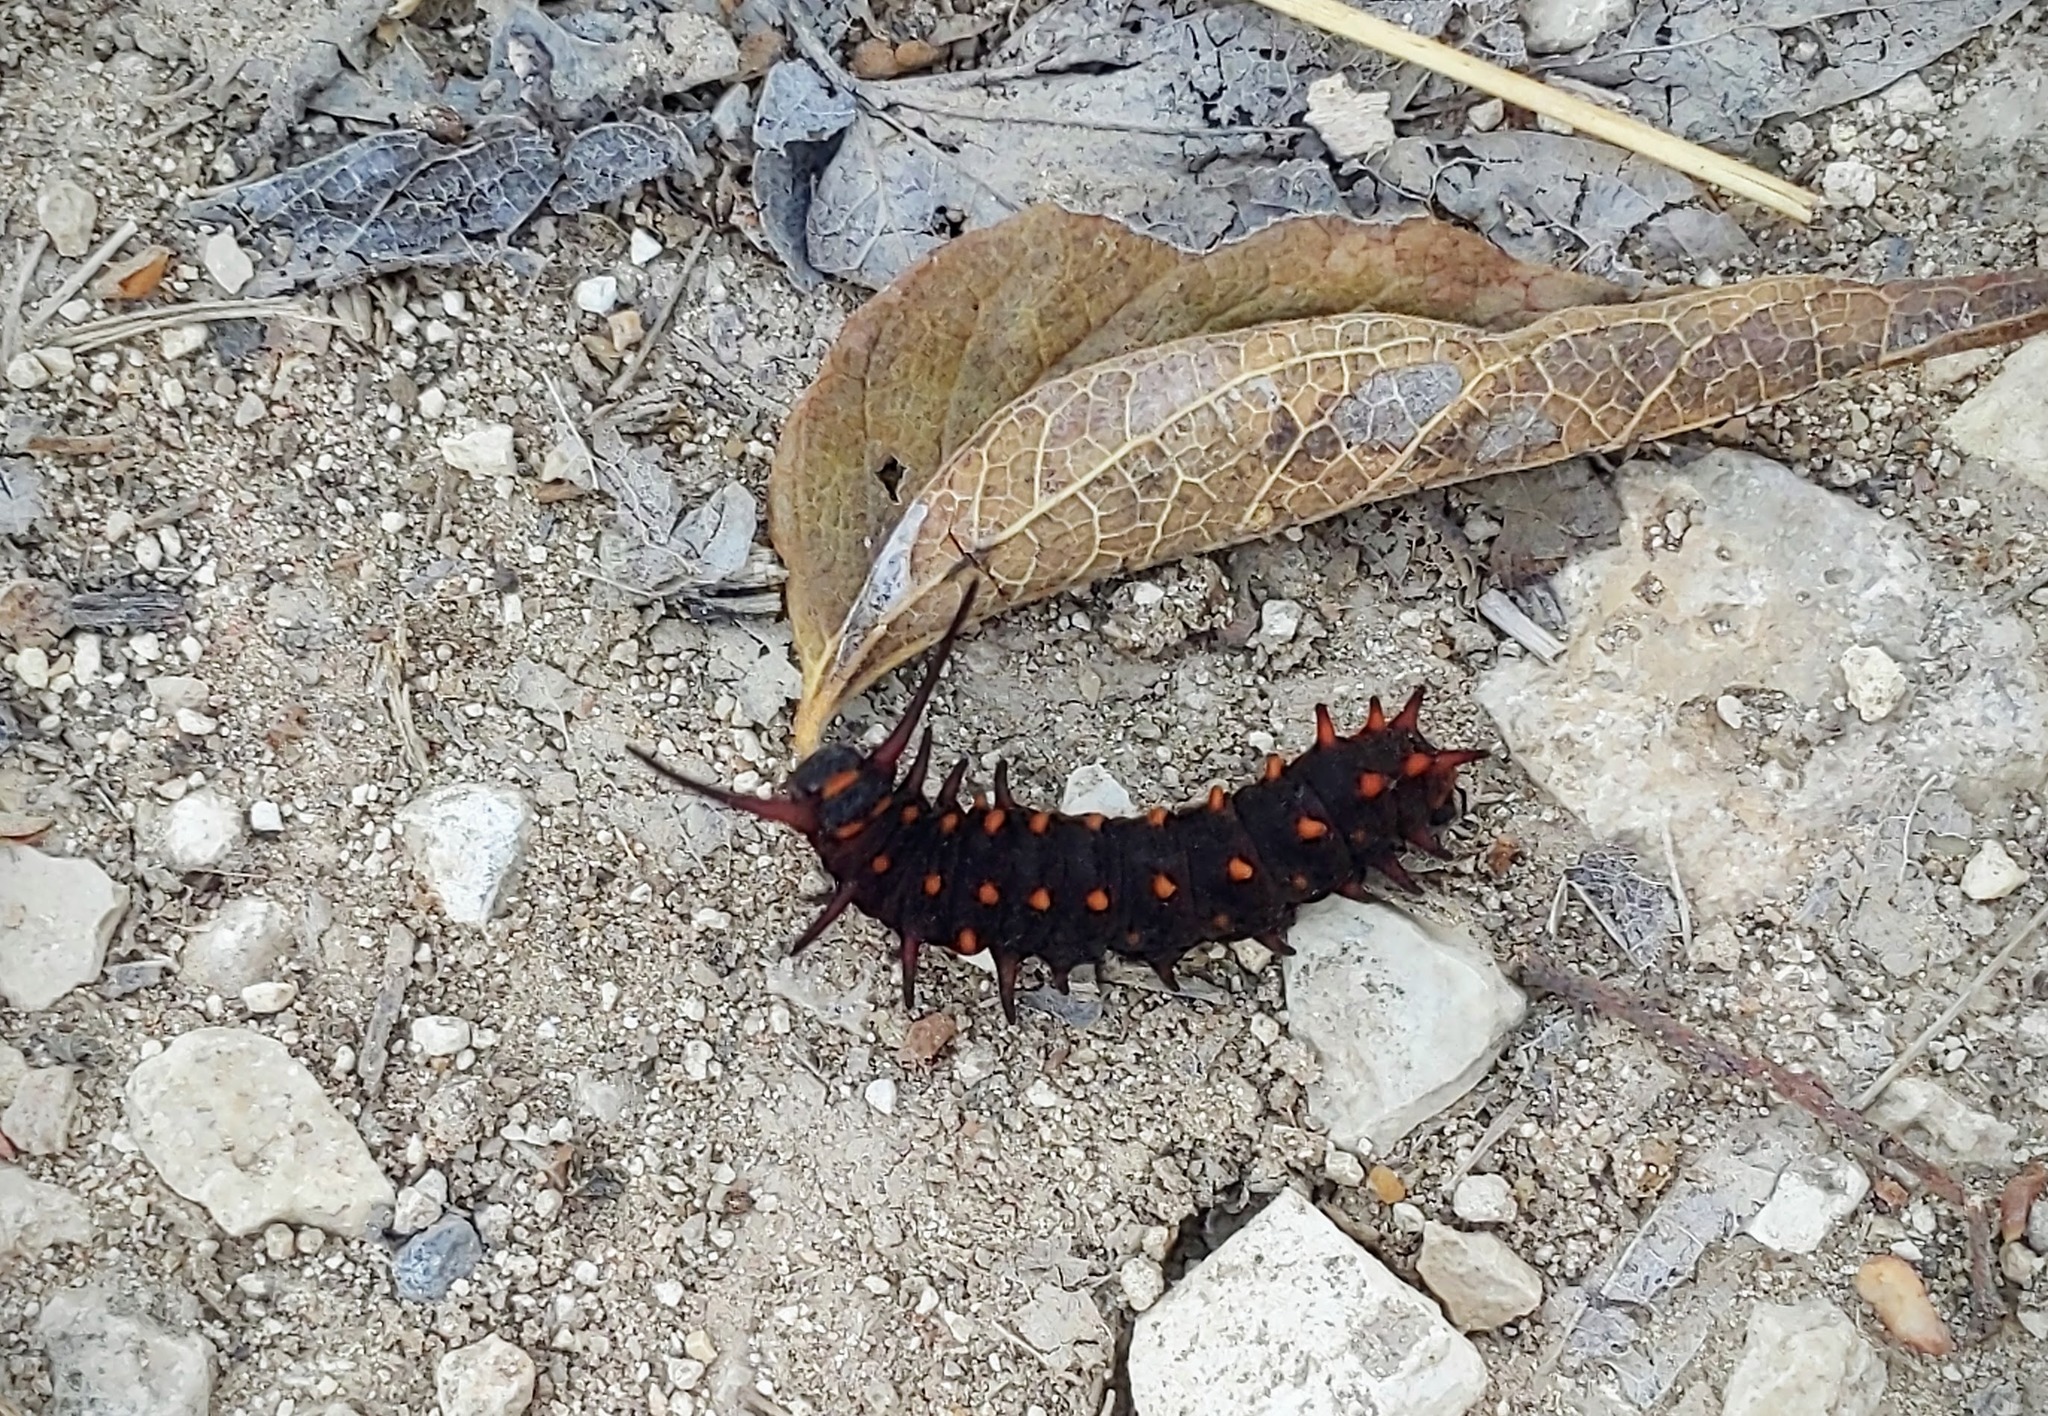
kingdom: Animalia
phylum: Arthropoda
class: Insecta
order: Lepidoptera
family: Papilionidae
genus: Battus
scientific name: Battus philenor
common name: Pipevine swallowtail
